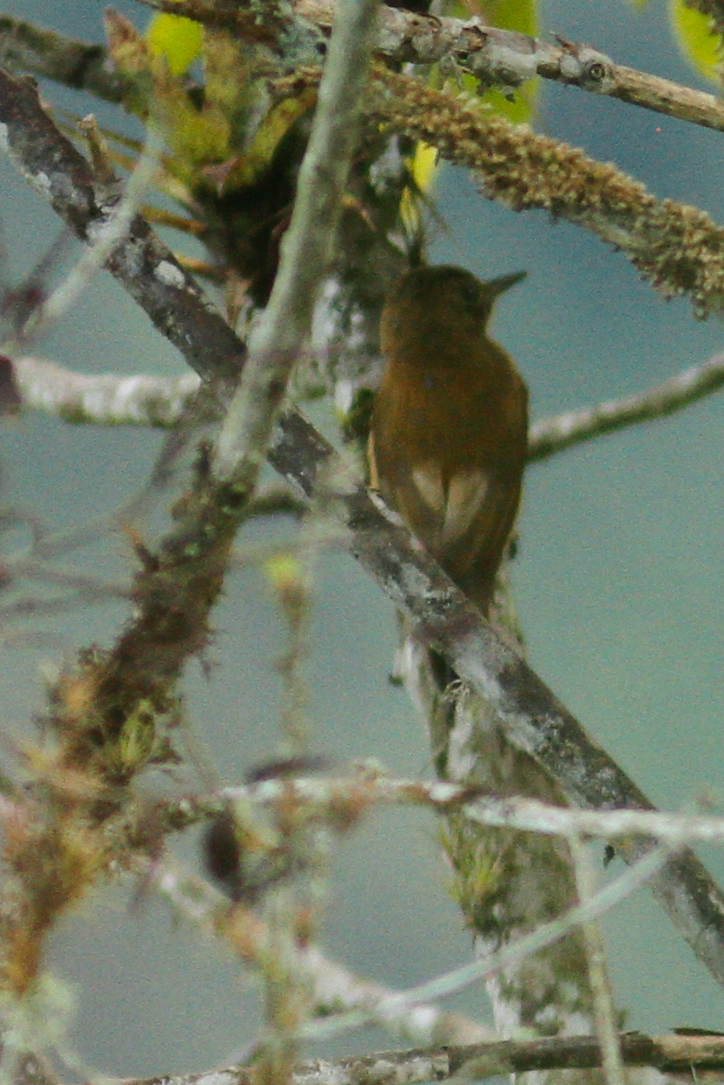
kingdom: Animalia
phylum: Chordata
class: Aves
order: Piciformes
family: Picidae
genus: Leuconotopicus
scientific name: Leuconotopicus fumigatus
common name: Smoky-brown woodpecker
